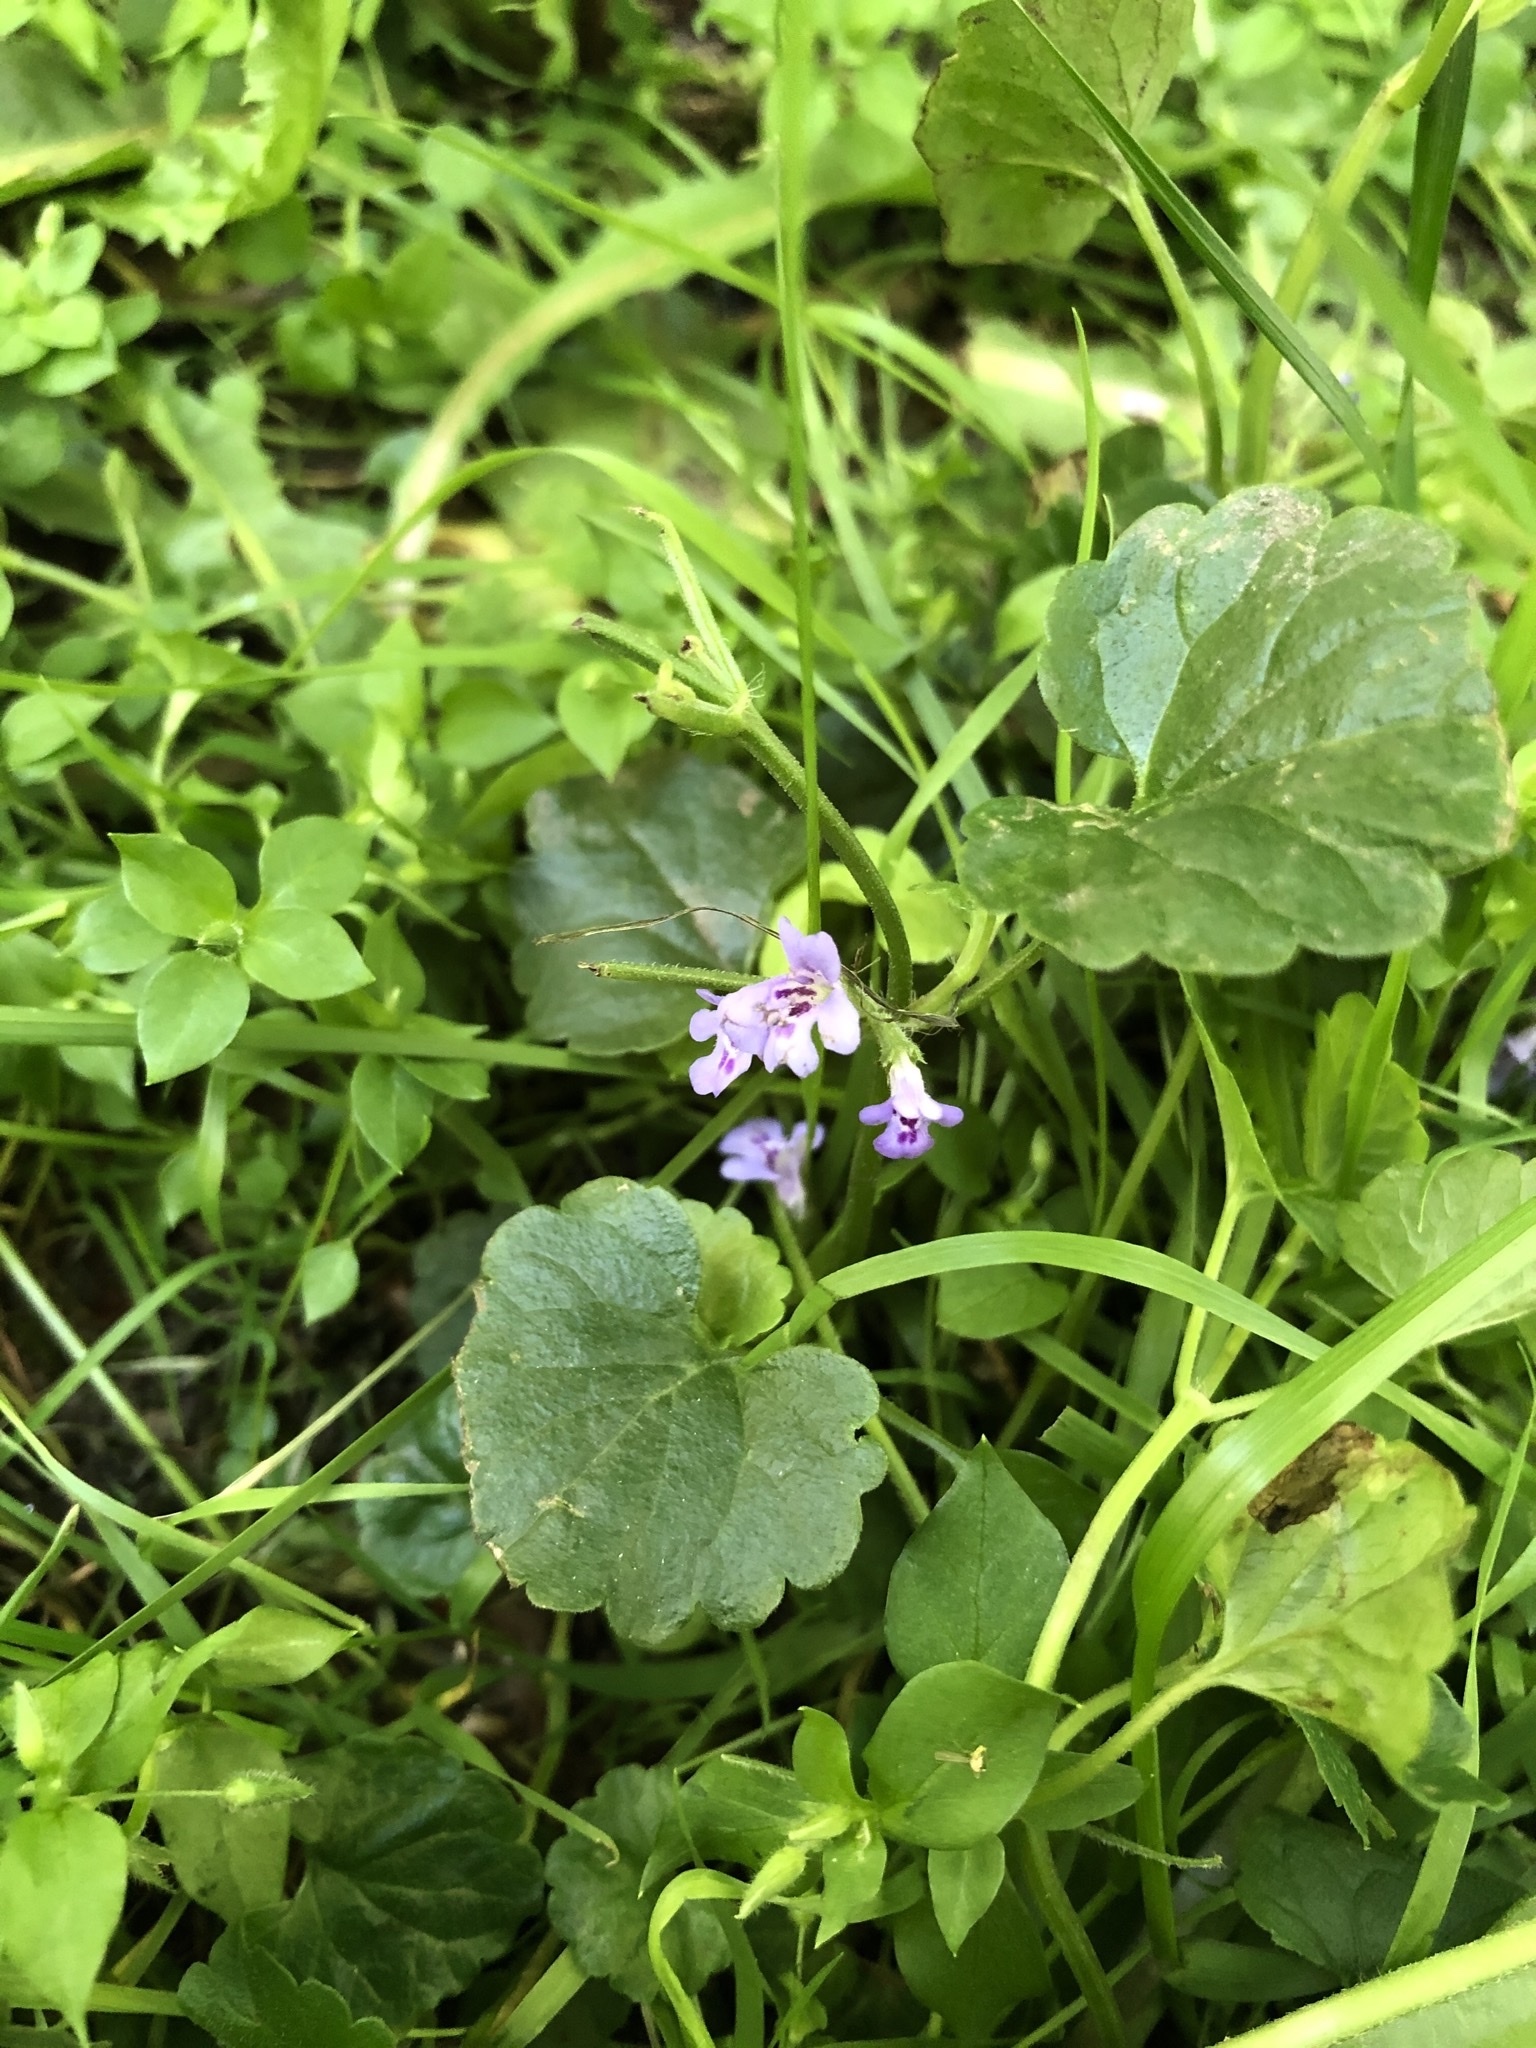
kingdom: Plantae
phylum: Tracheophyta
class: Magnoliopsida
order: Lamiales
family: Lamiaceae
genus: Glechoma
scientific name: Glechoma hederacea
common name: Ground ivy
